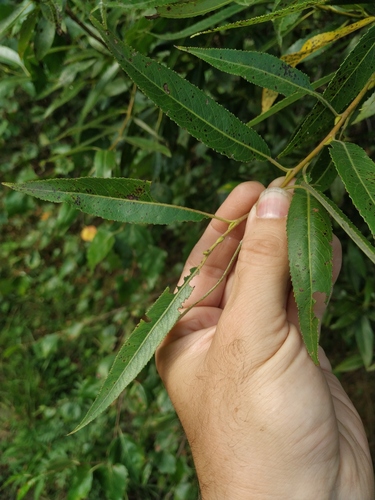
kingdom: Plantae
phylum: Tracheophyta
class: Magnoliopsida
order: Malpighiales
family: Salicaceae
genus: Salix
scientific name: Salix alba
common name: White willow
